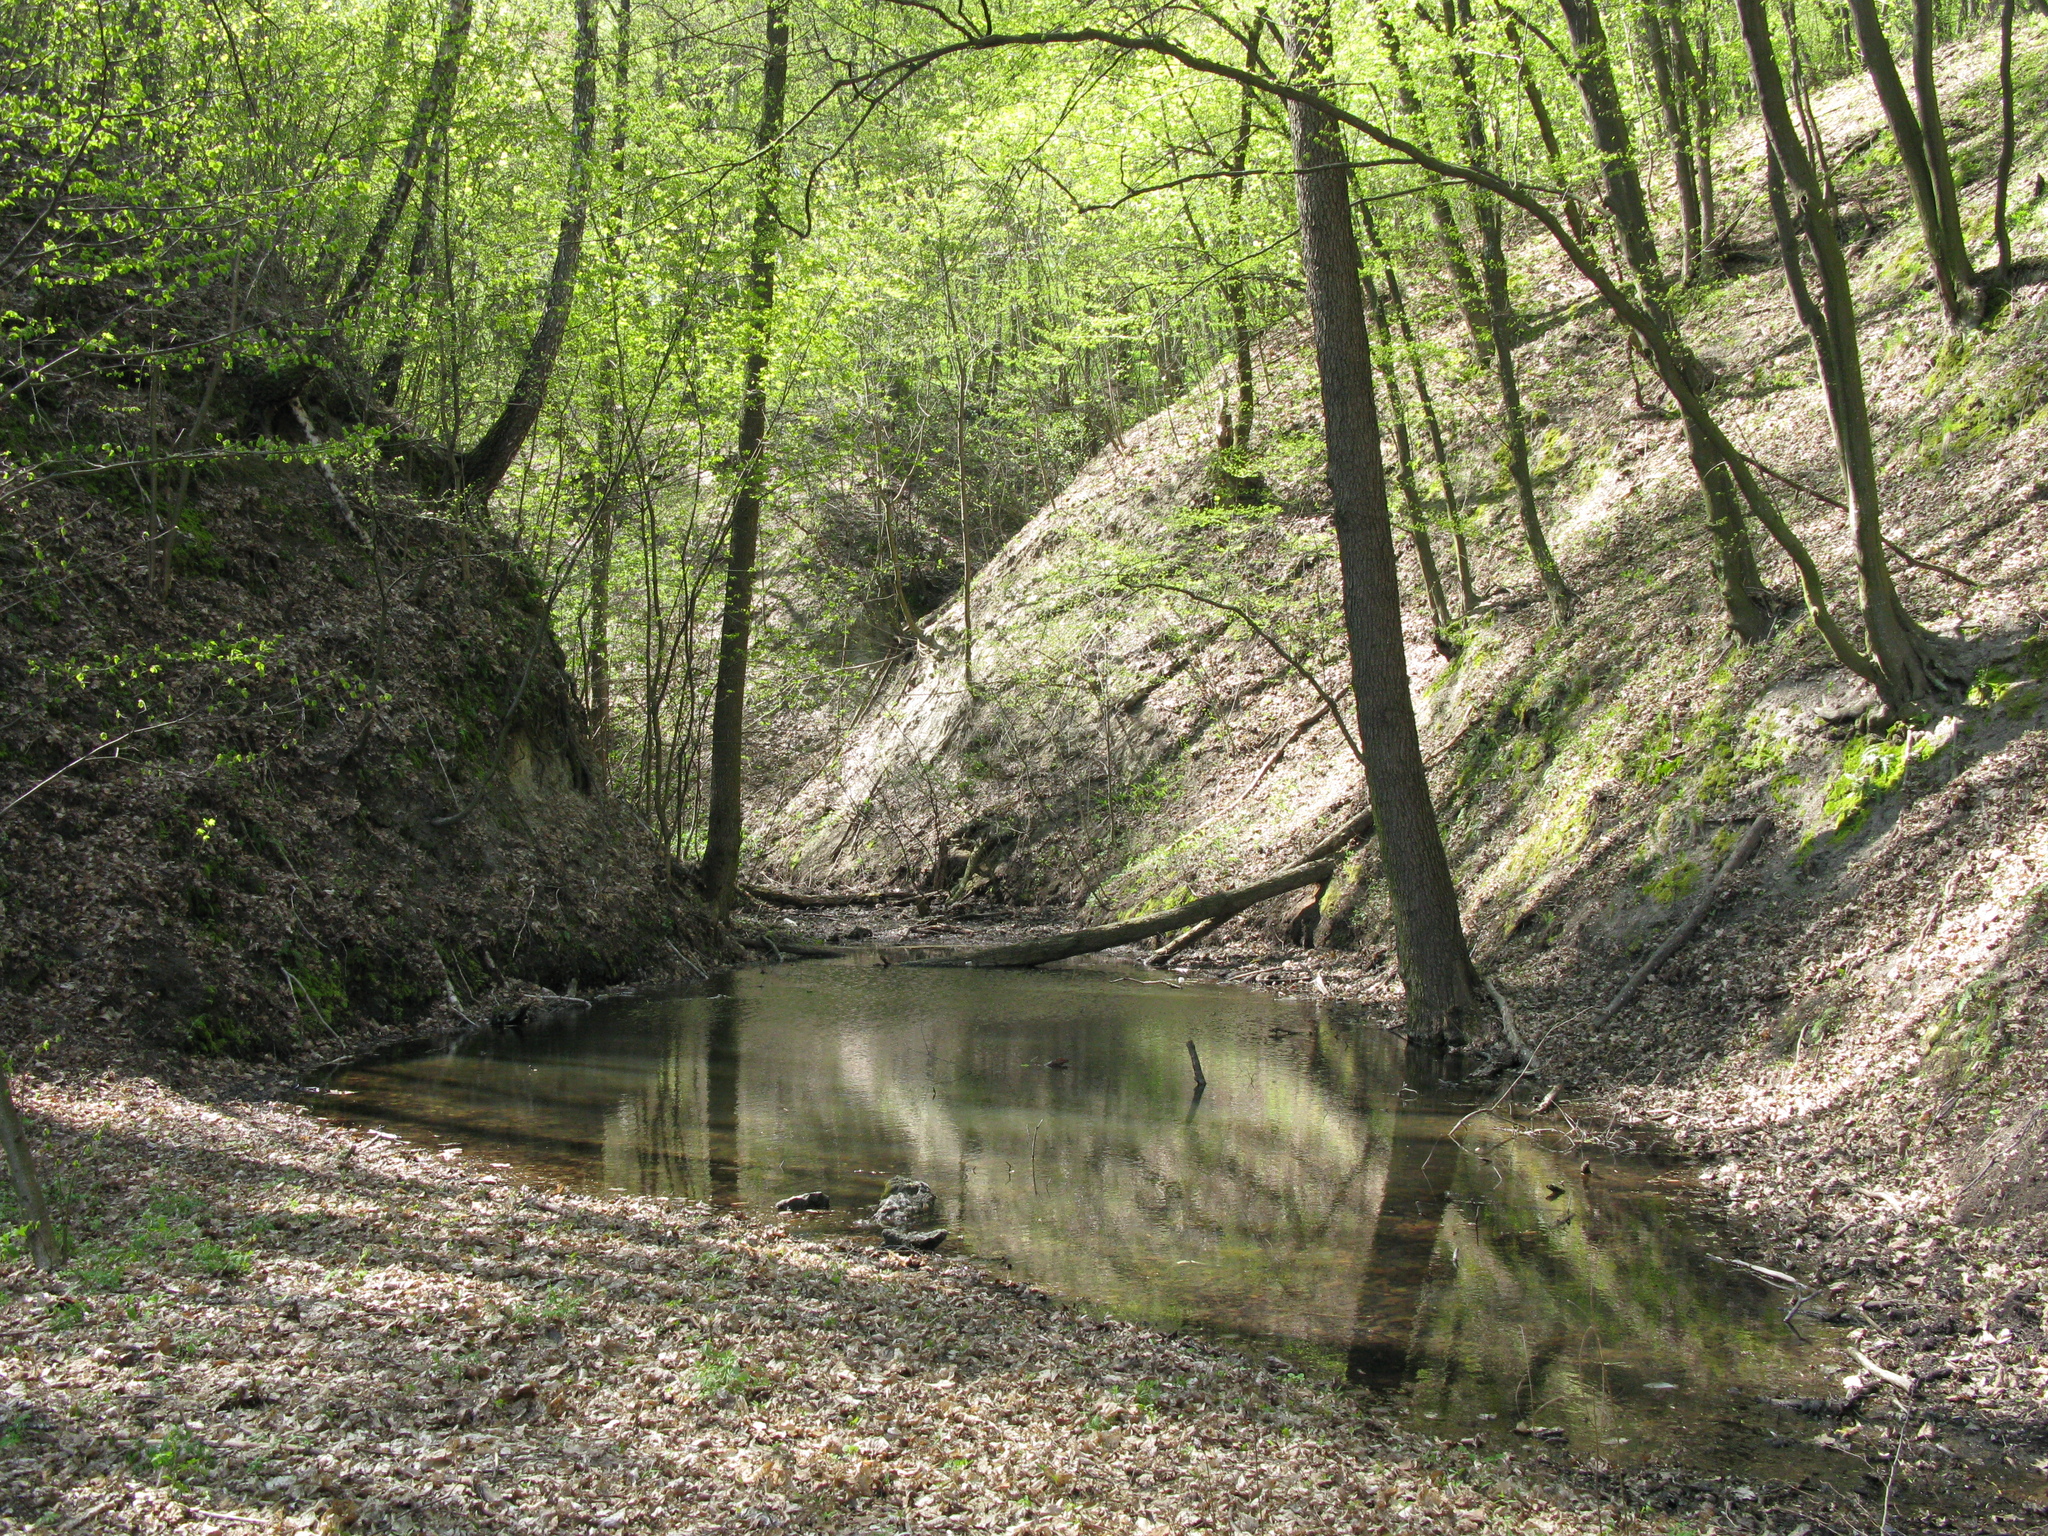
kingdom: Plantae
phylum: Tracheophyta
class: Magnoliopsida
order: Fagales
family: Betulaceae
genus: Carpinus
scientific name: Carpinus betulus
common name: Hornbeam
